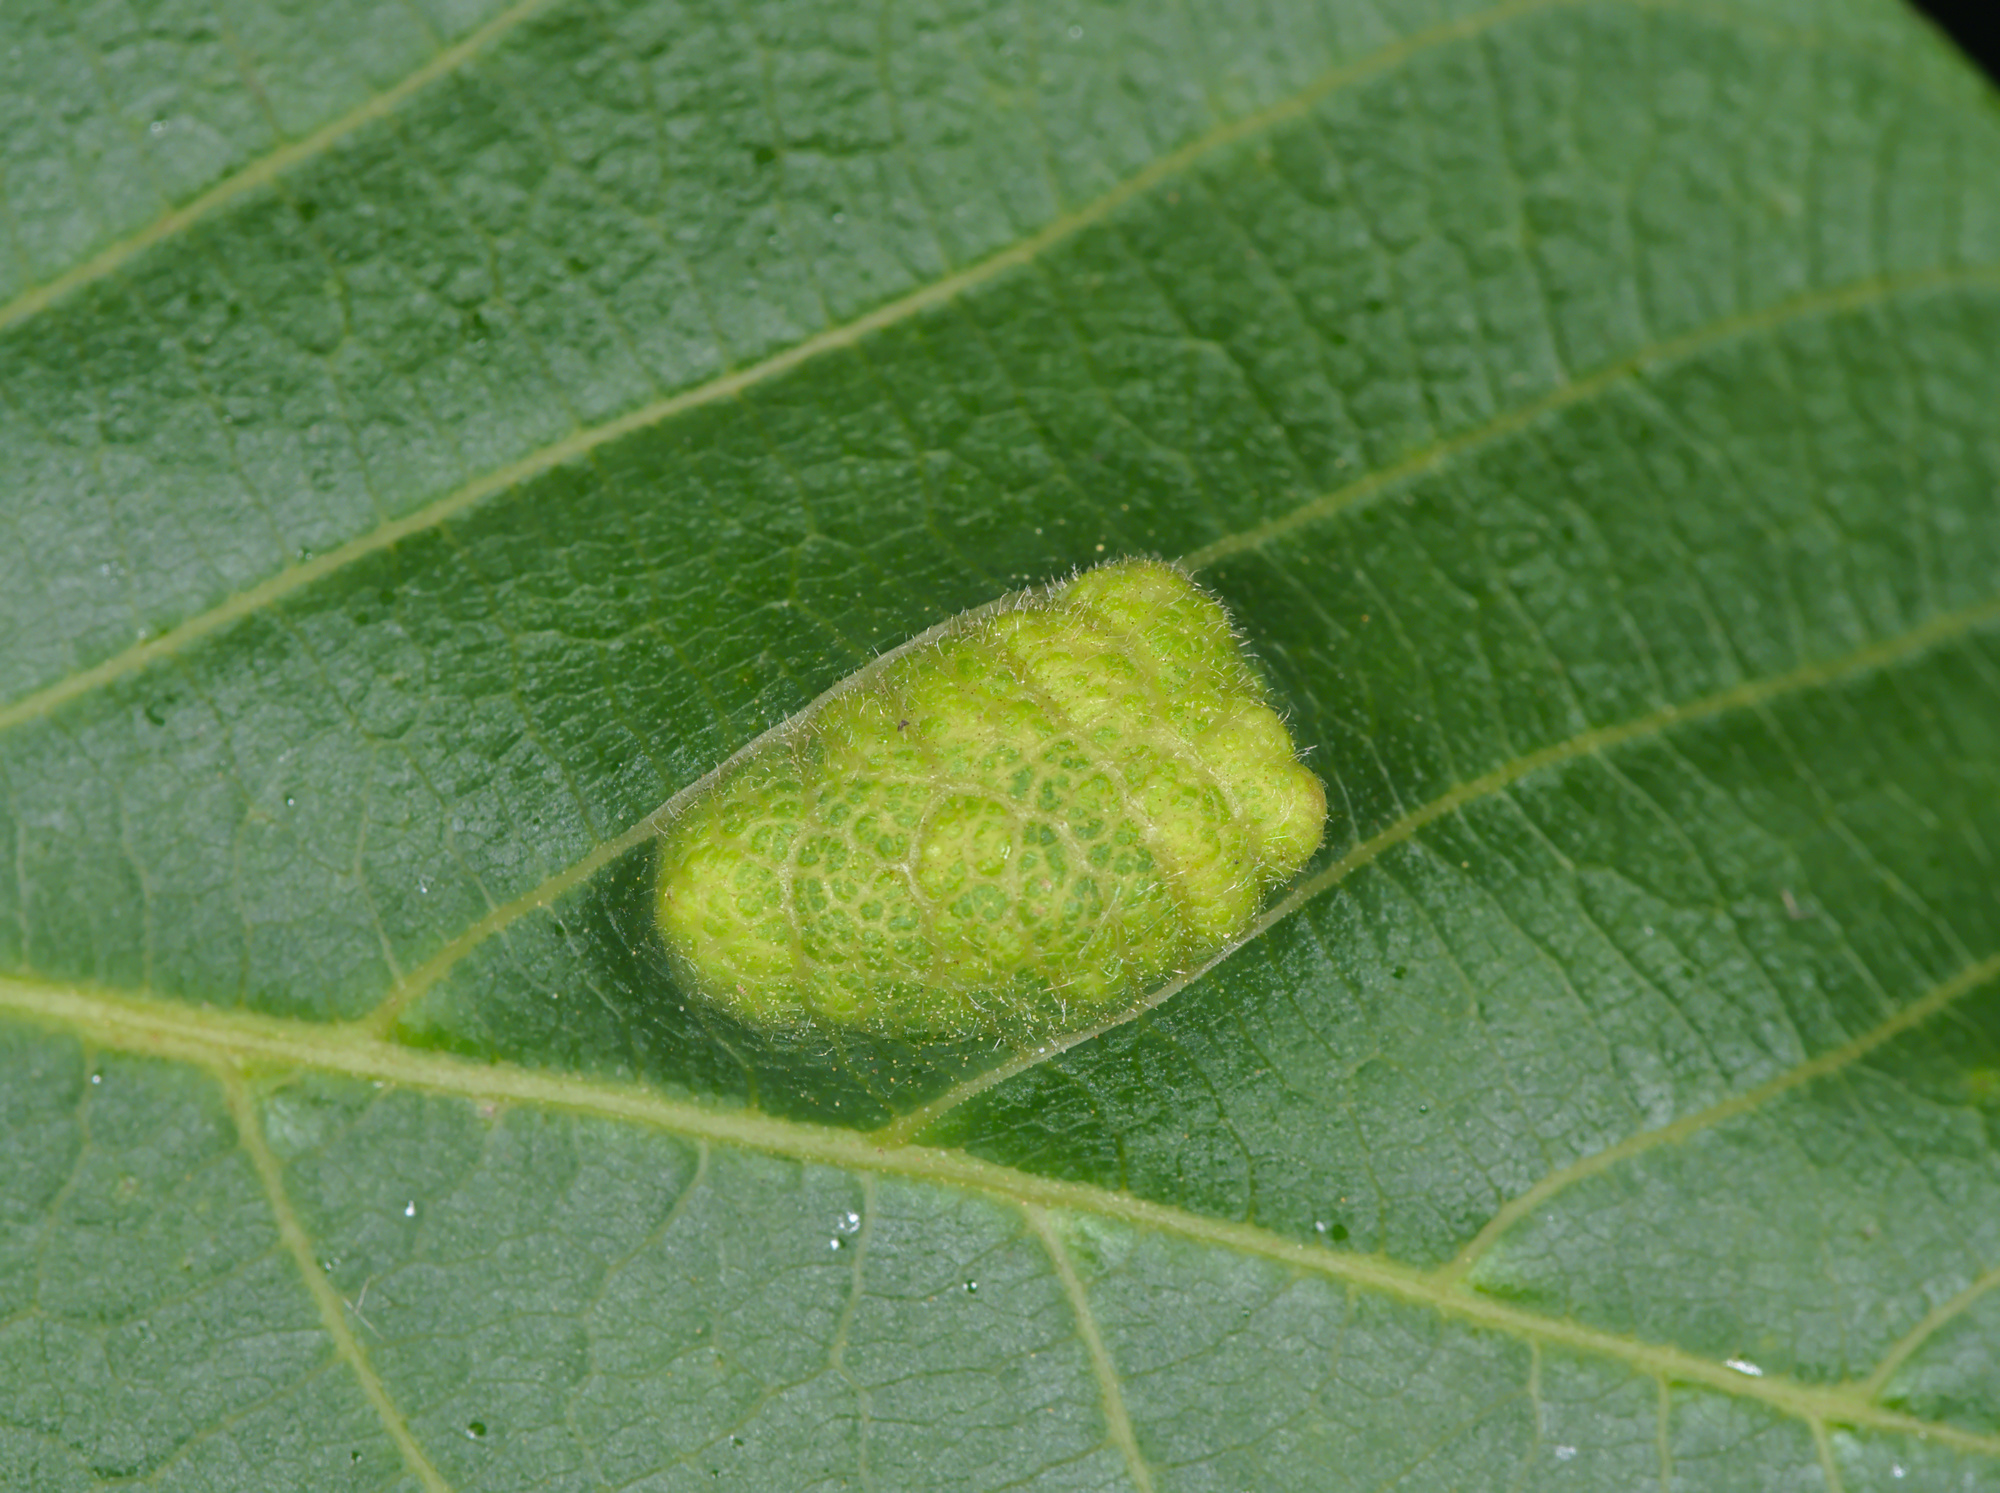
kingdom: Animalia
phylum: Arthropoda
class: Arachnida
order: Trombidiformes
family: Eriophyidae
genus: Aceria
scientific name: Aceria erinea
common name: Persian walnut erineum mite
